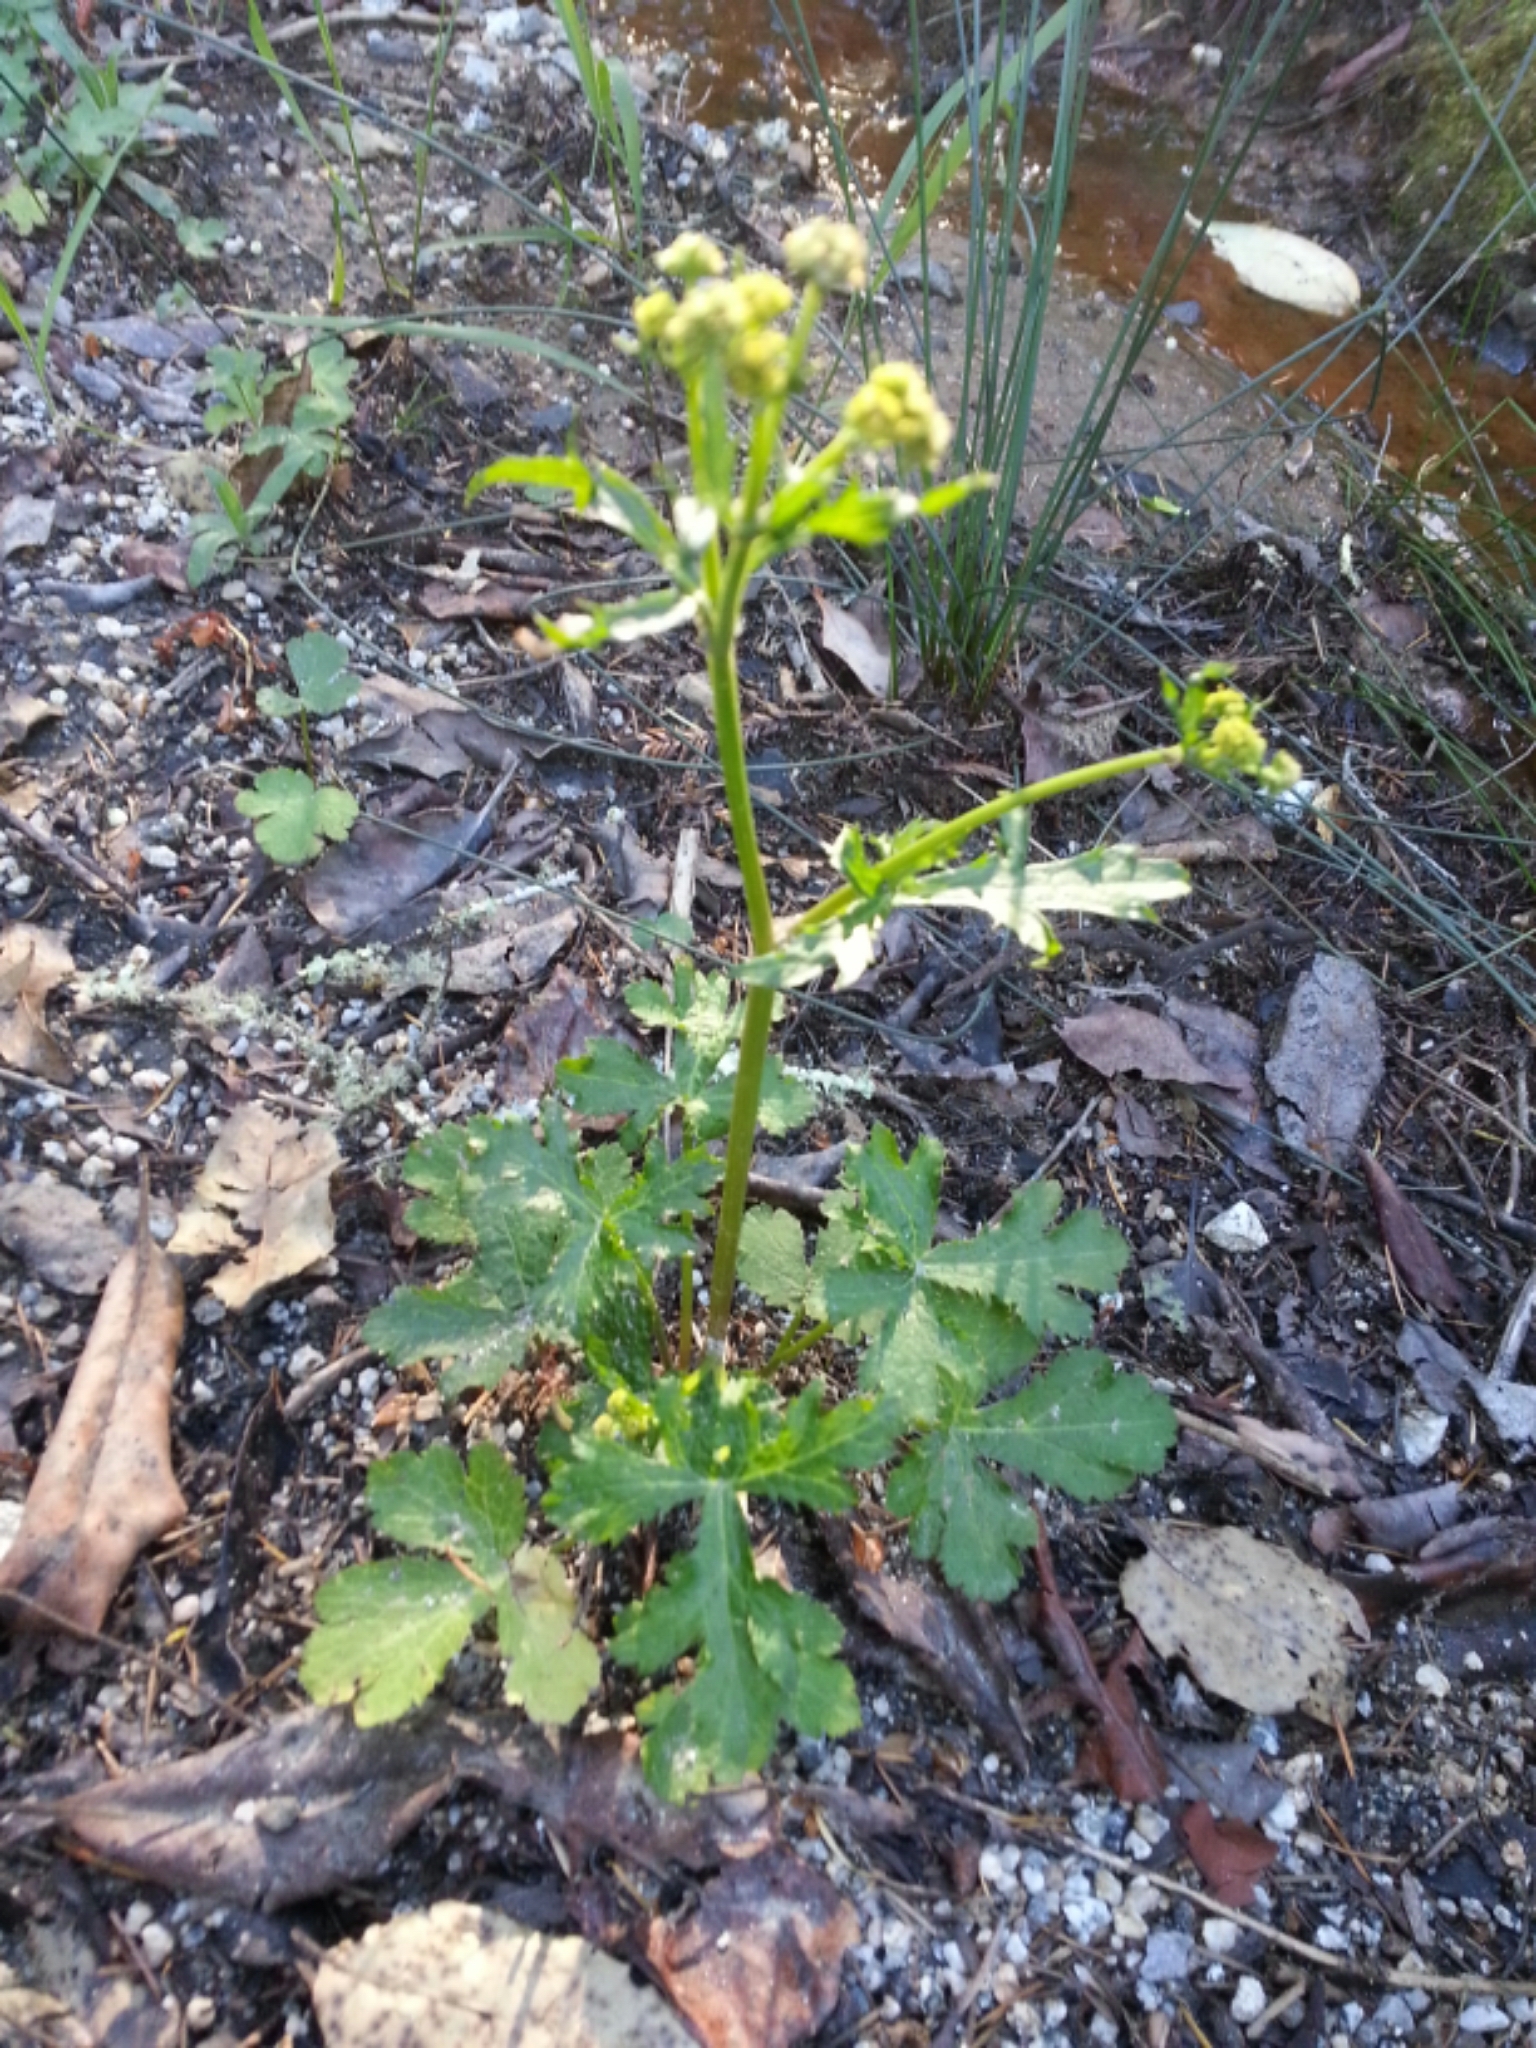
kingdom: Plantae
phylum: Tracheophyta
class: Magnoliopsida
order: Apiales
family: Apiaceae
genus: Sanicula
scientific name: Sanicula crassicaulis
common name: Western snakeroot
